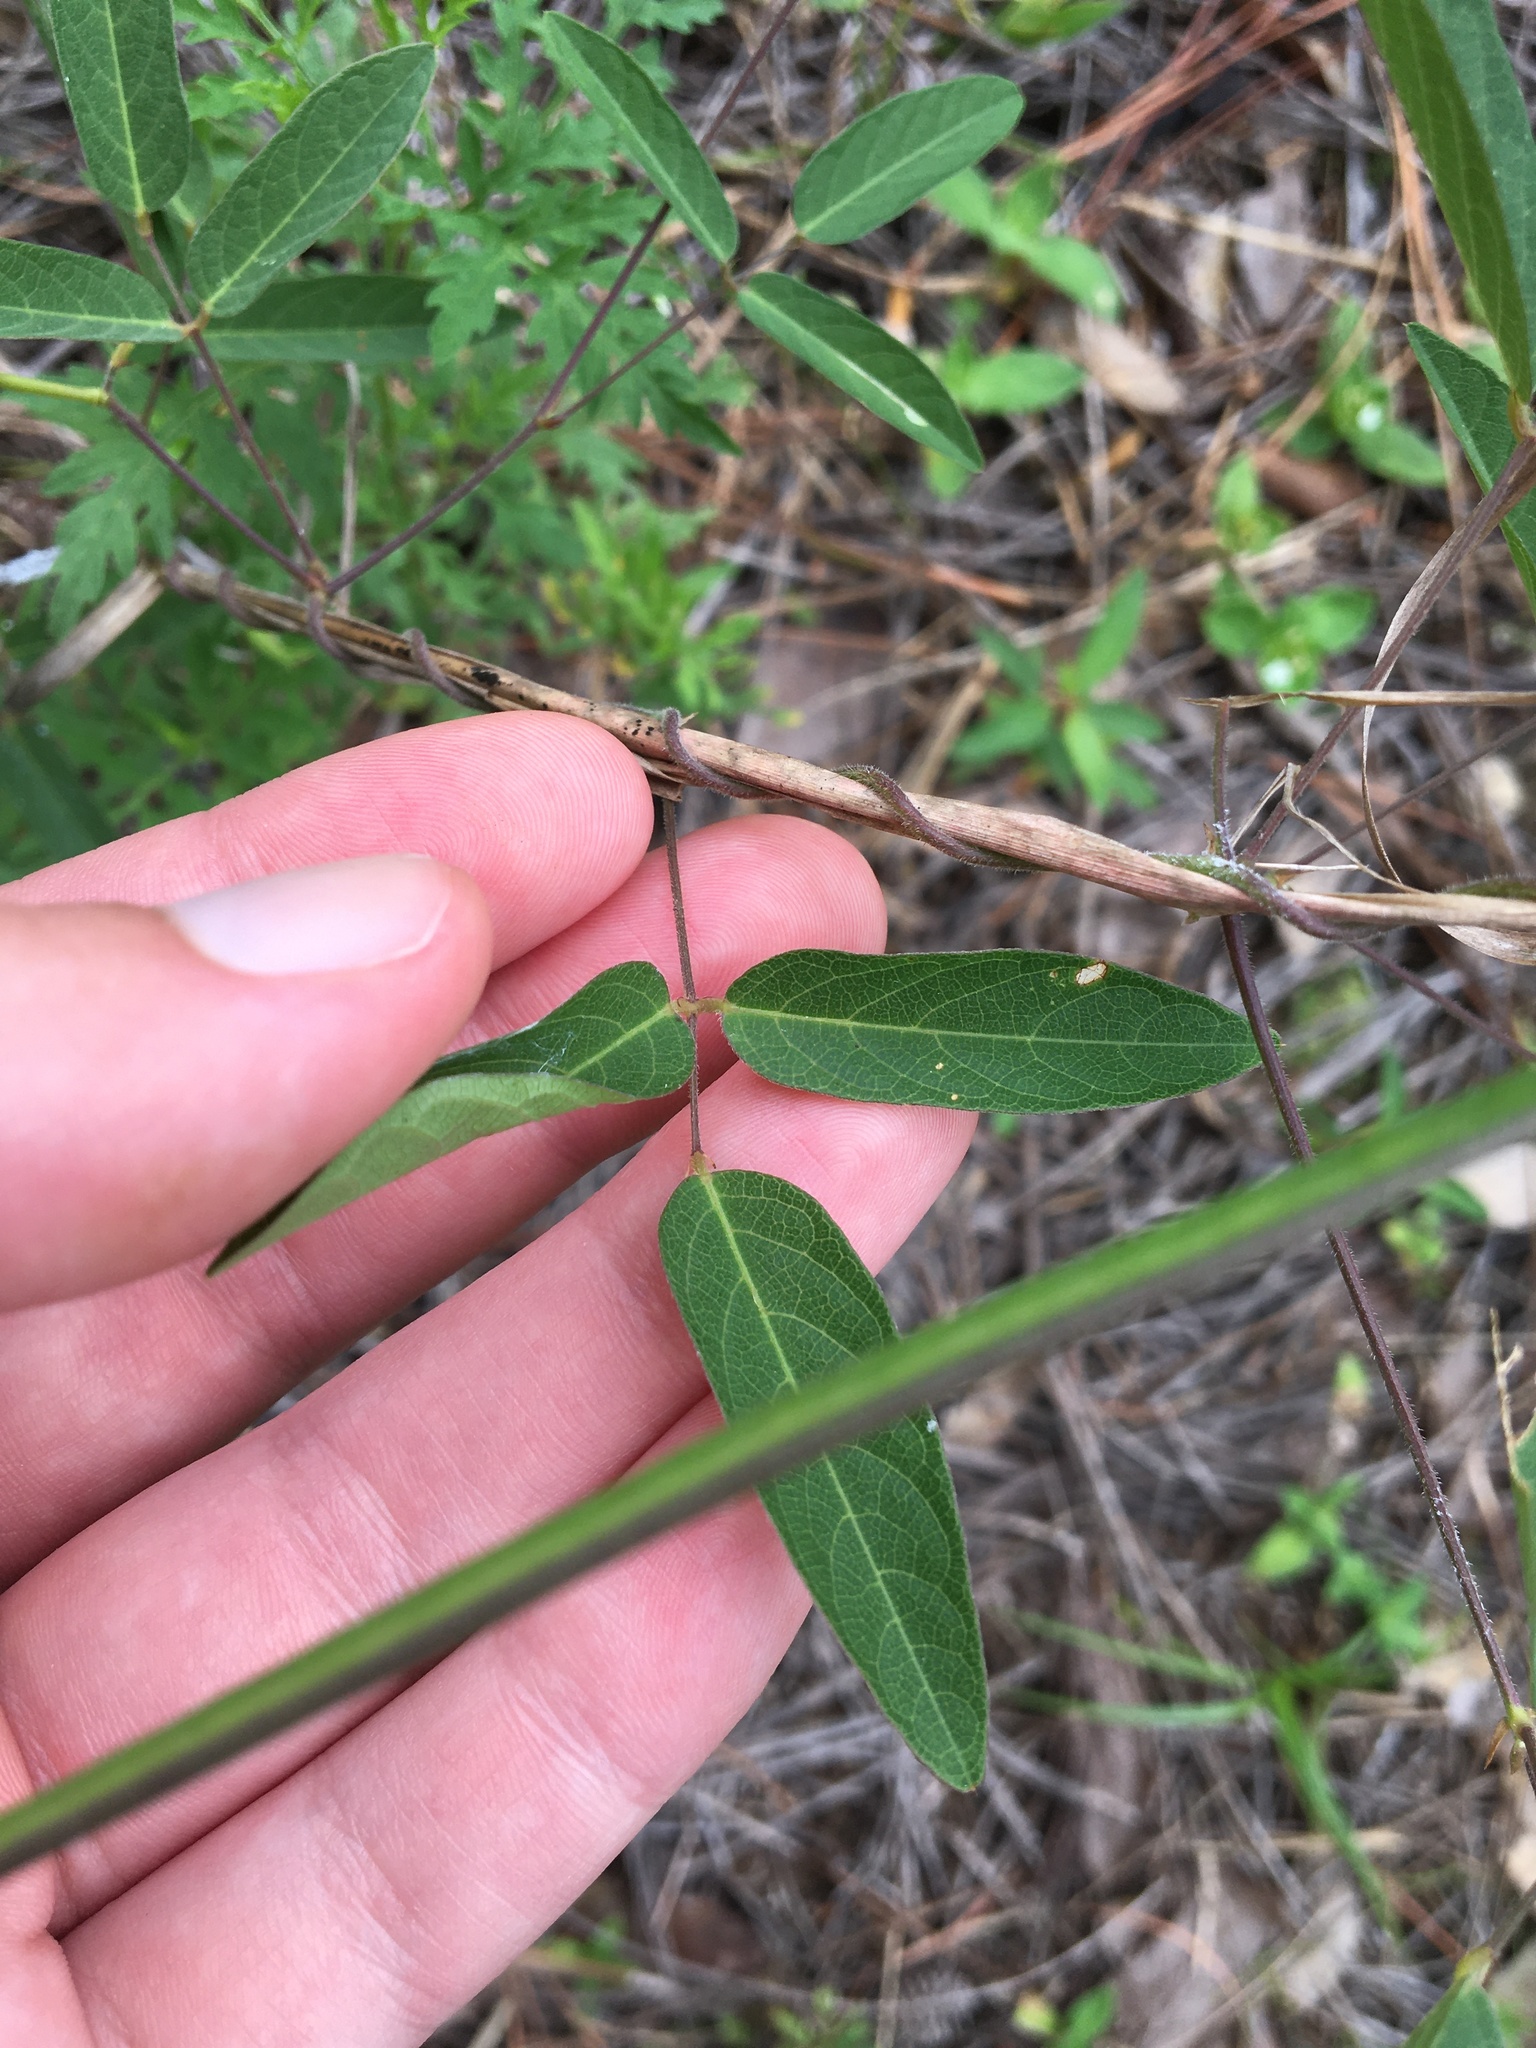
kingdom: Plantae
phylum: Tracheophyta
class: Magnoliopsida
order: Fabales
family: Fabaceae
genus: Centrosema
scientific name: Centrosema virginianum
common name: Butterfly-pea
